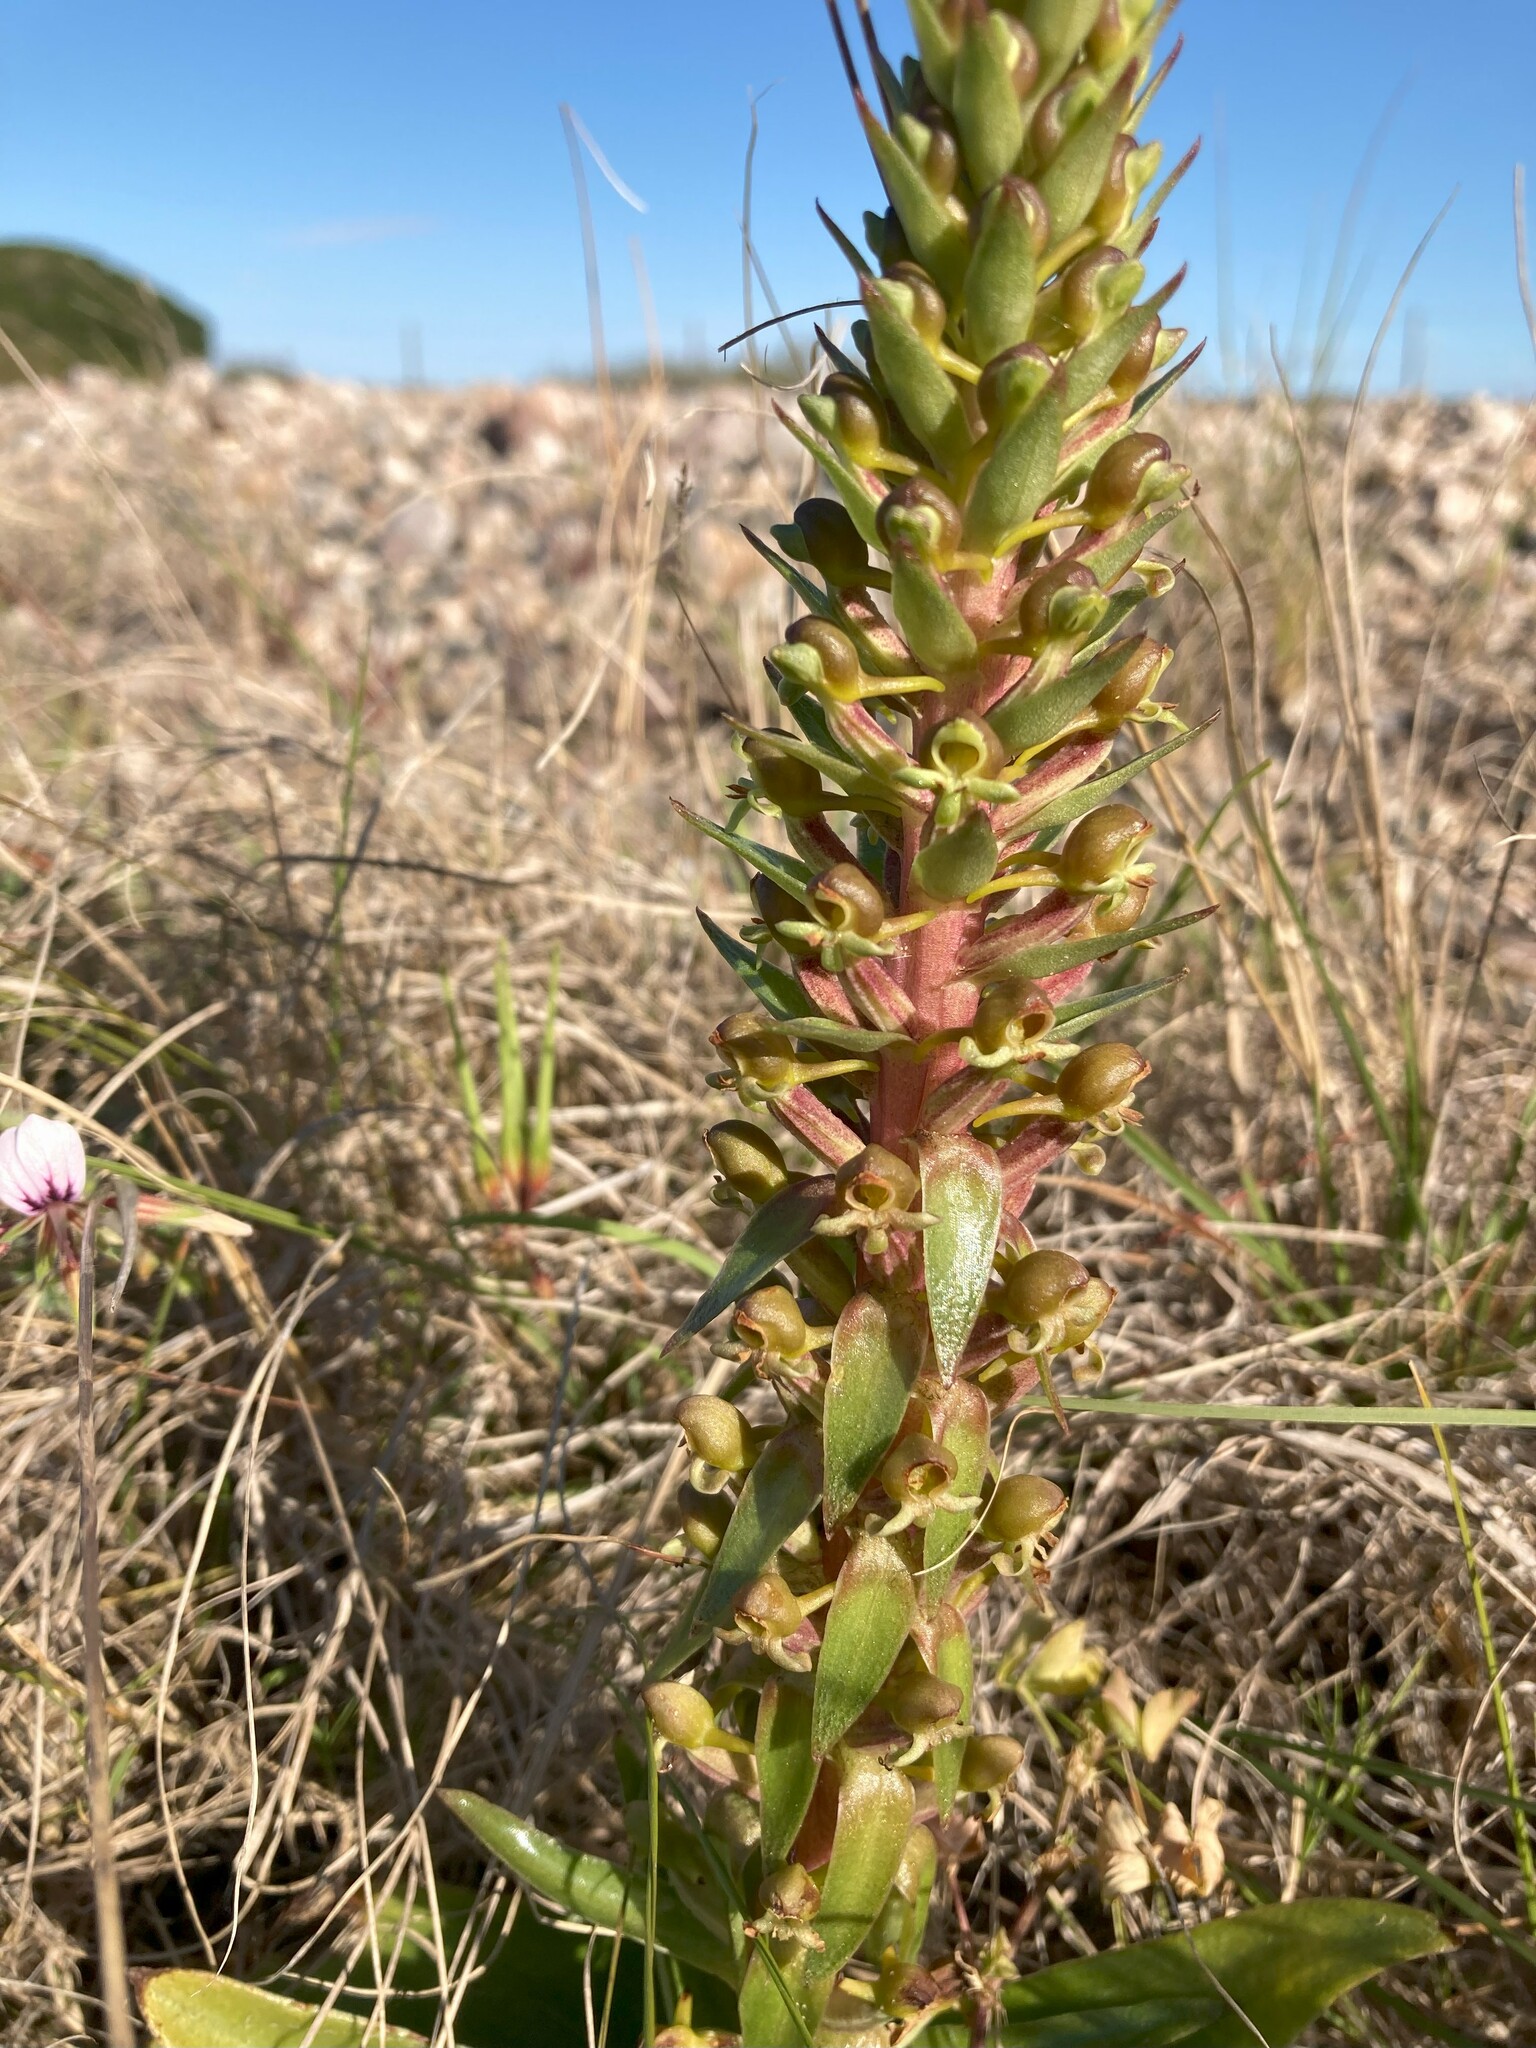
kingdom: Plantae
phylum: Tracheophyta
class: Liliopsida
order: Asparagales
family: Orchidaceae
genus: Satyrium
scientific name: Satyrium parviflorum
